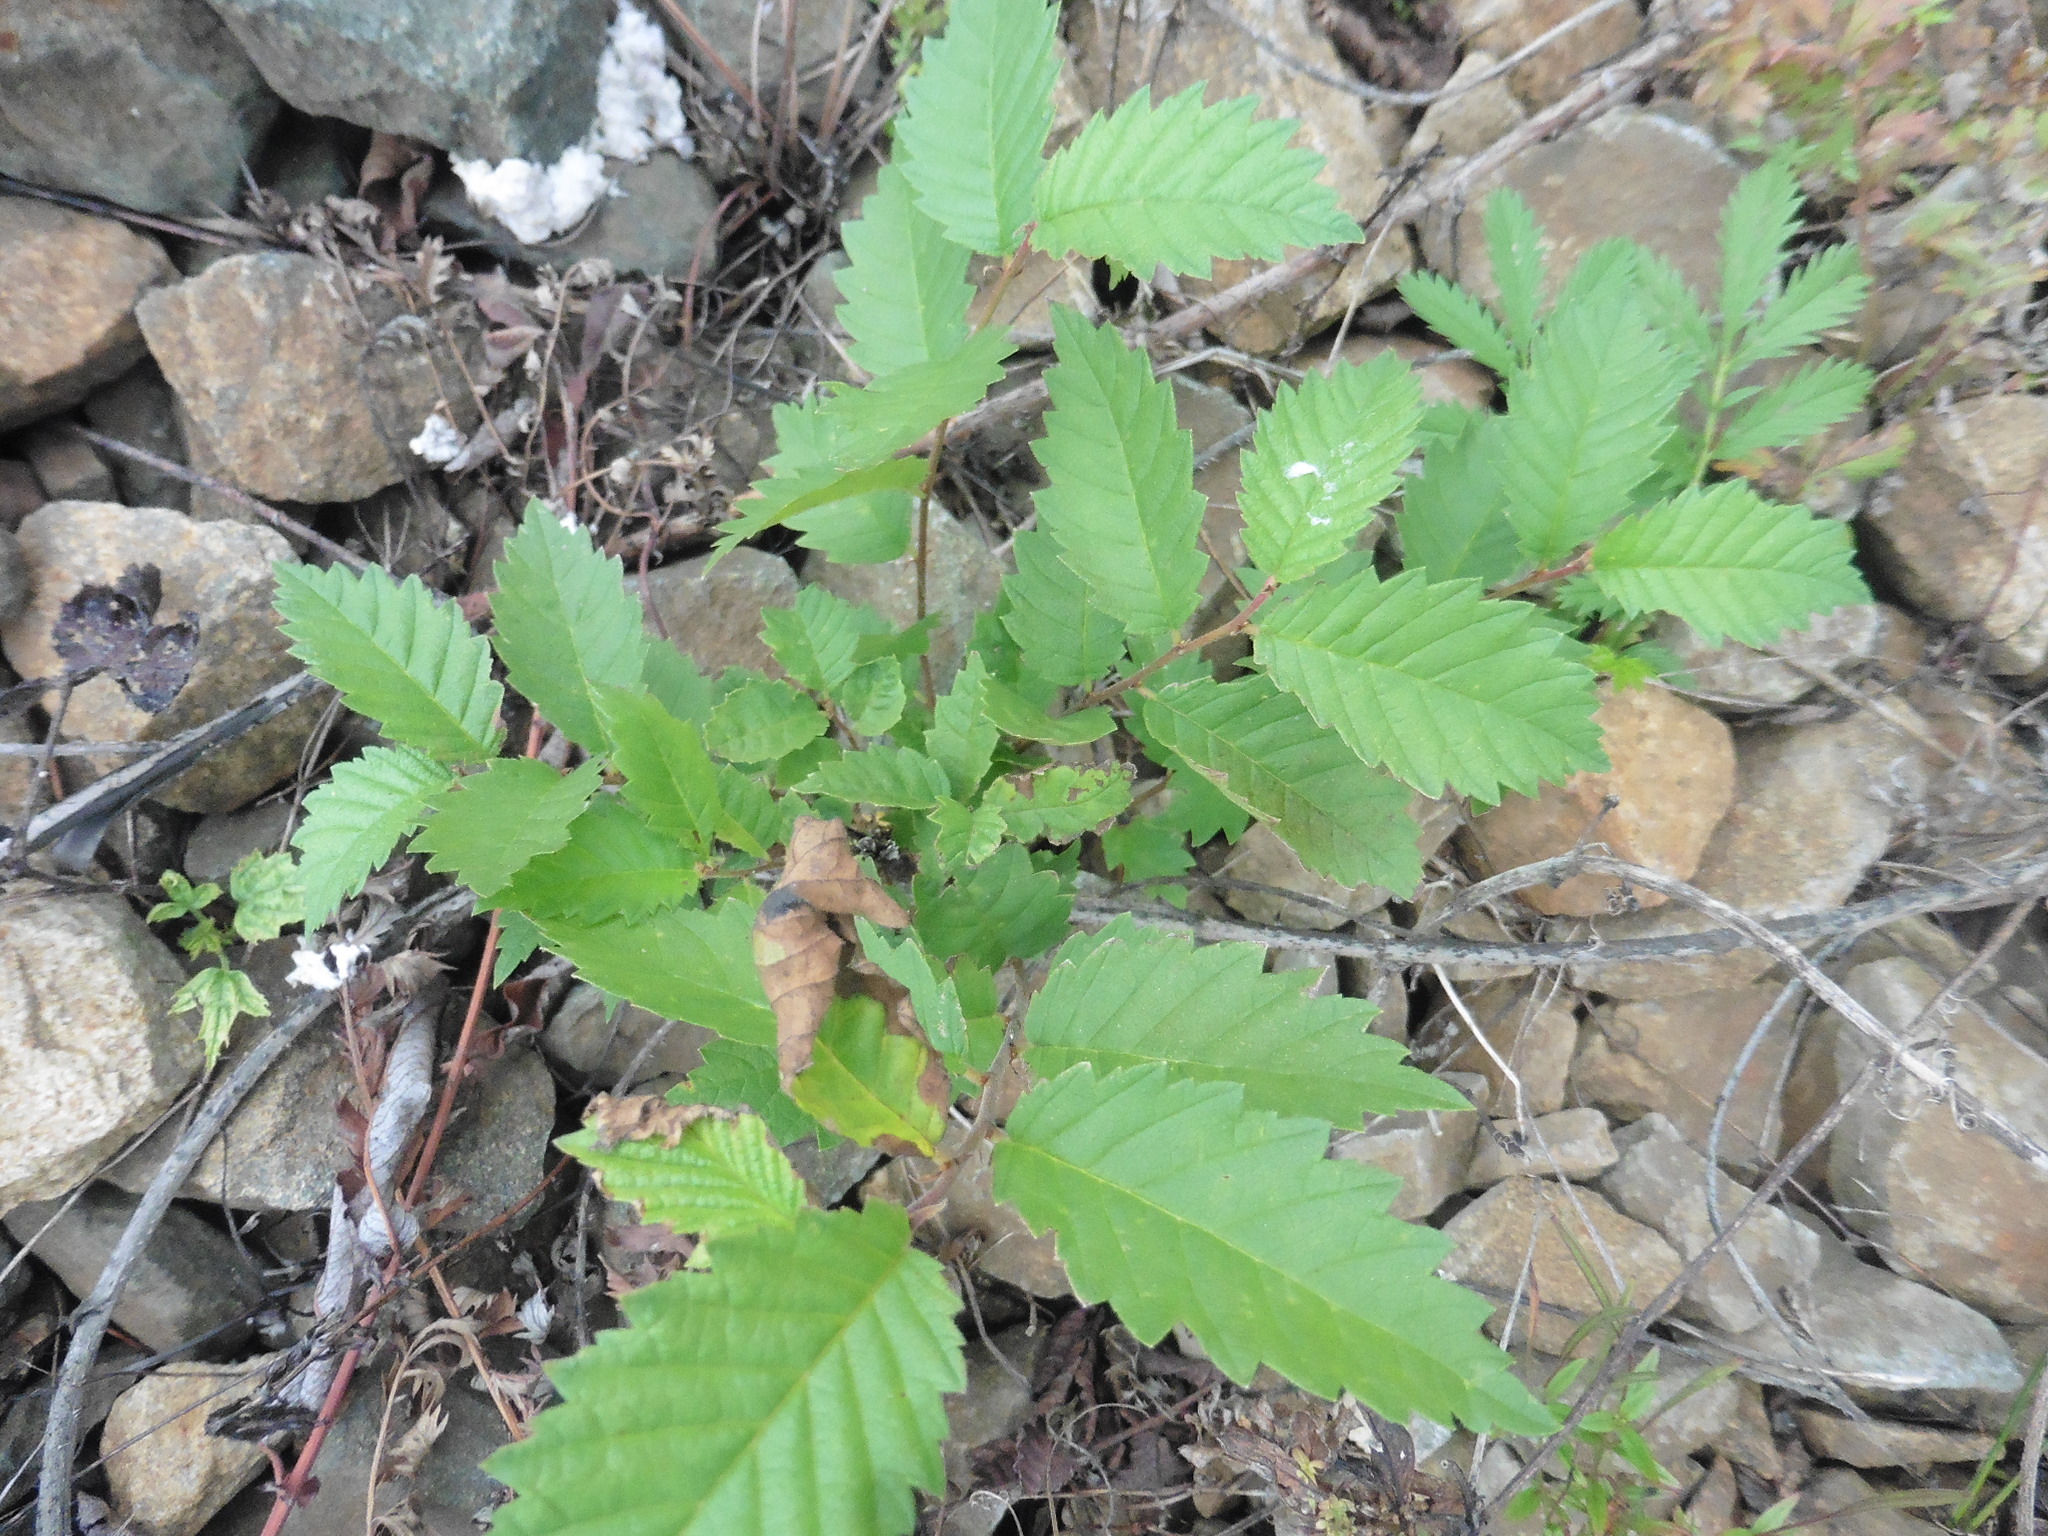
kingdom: Plantae
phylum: Tracheophyta
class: Magnoliopsida
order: Rosales
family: Ulmaceae
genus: Ulmus
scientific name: Ulmus pumila
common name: Siberian elm
